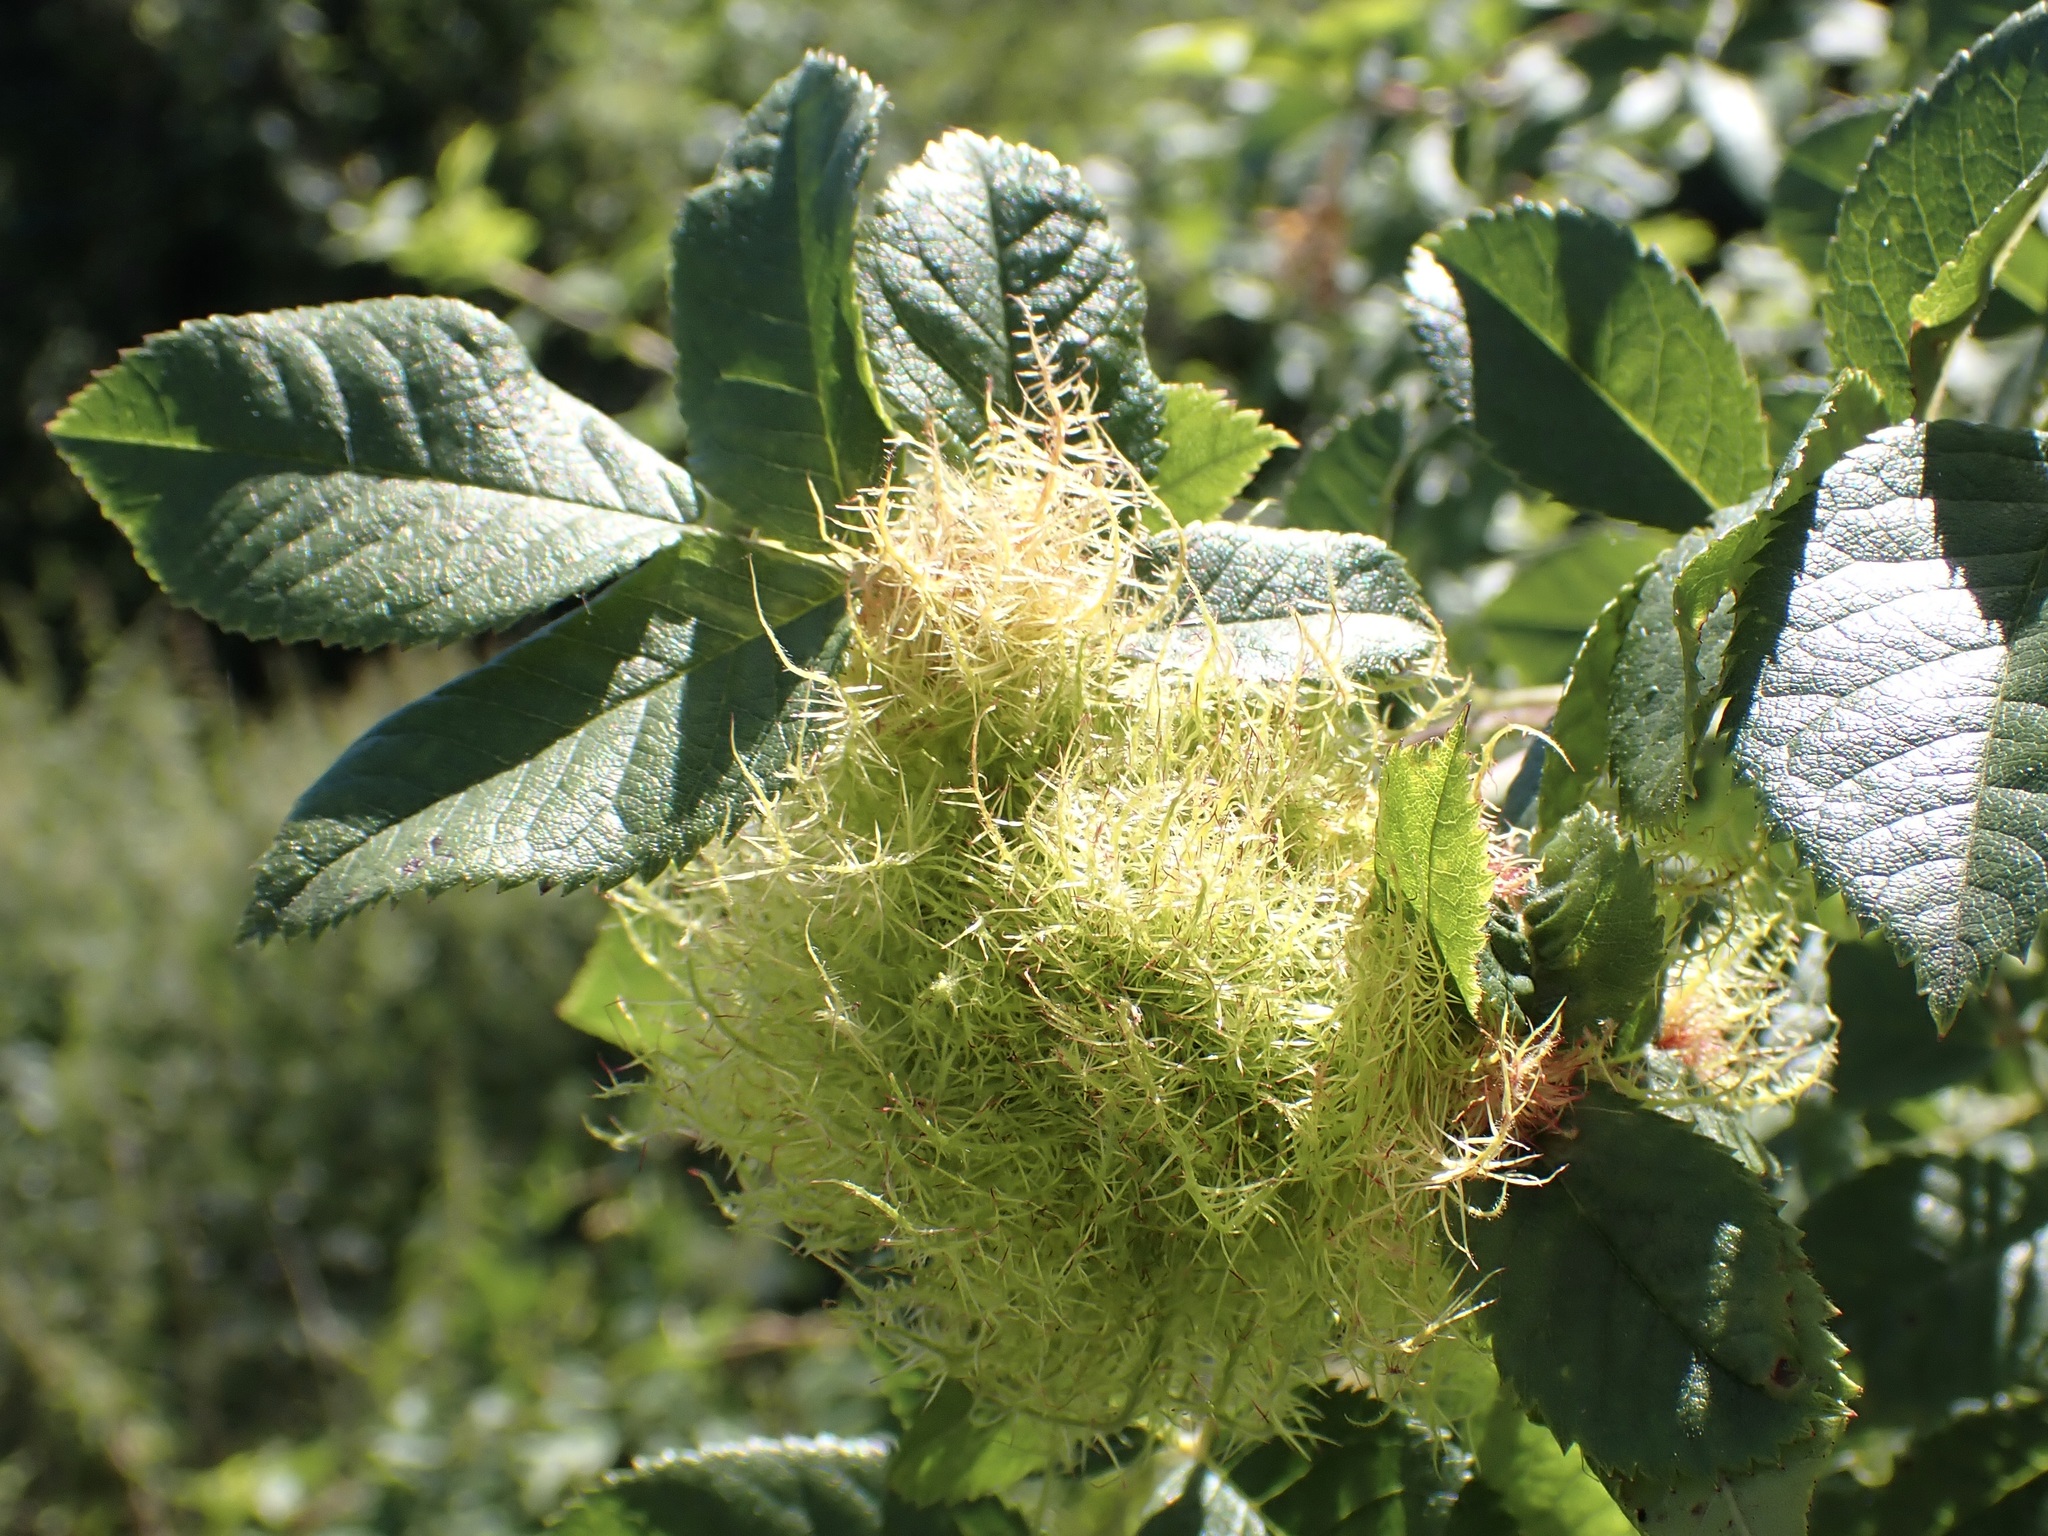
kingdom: Animalia
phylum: Arthropoda
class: Insecta
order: Hymenoptera
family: Cynipidae
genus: Diplolepis
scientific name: Diplolepis rosae
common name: Bedeguar gall
